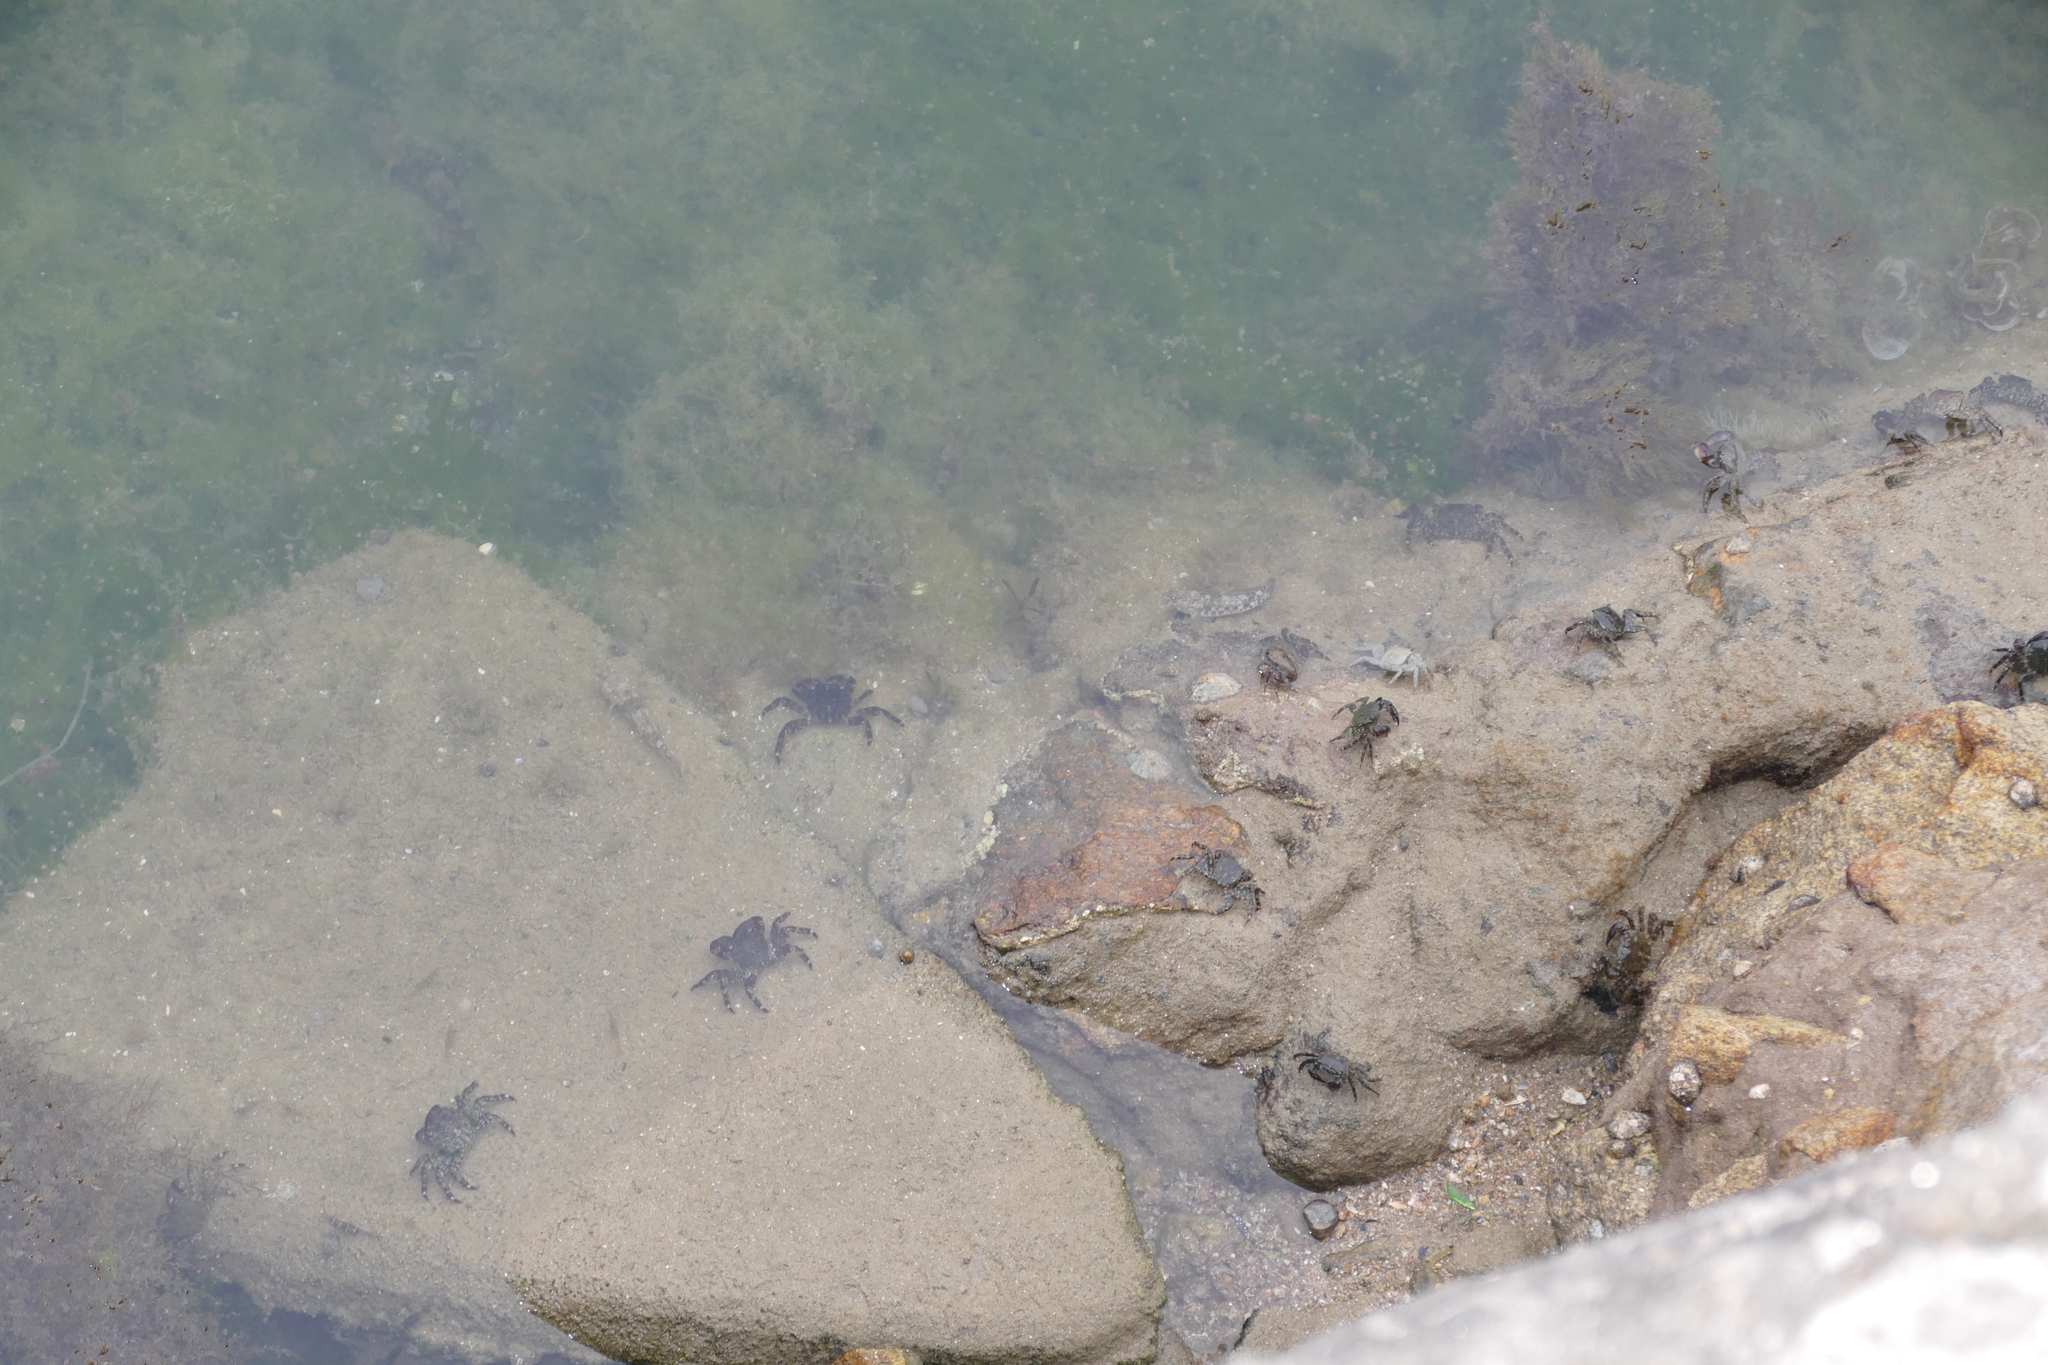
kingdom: Animalia
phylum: Arthropoda
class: Malacostraca
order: Decapoda
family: Grapsidae
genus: Pachygrapsus
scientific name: Pachygrapsus marmoratus
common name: Marbled rock crab
